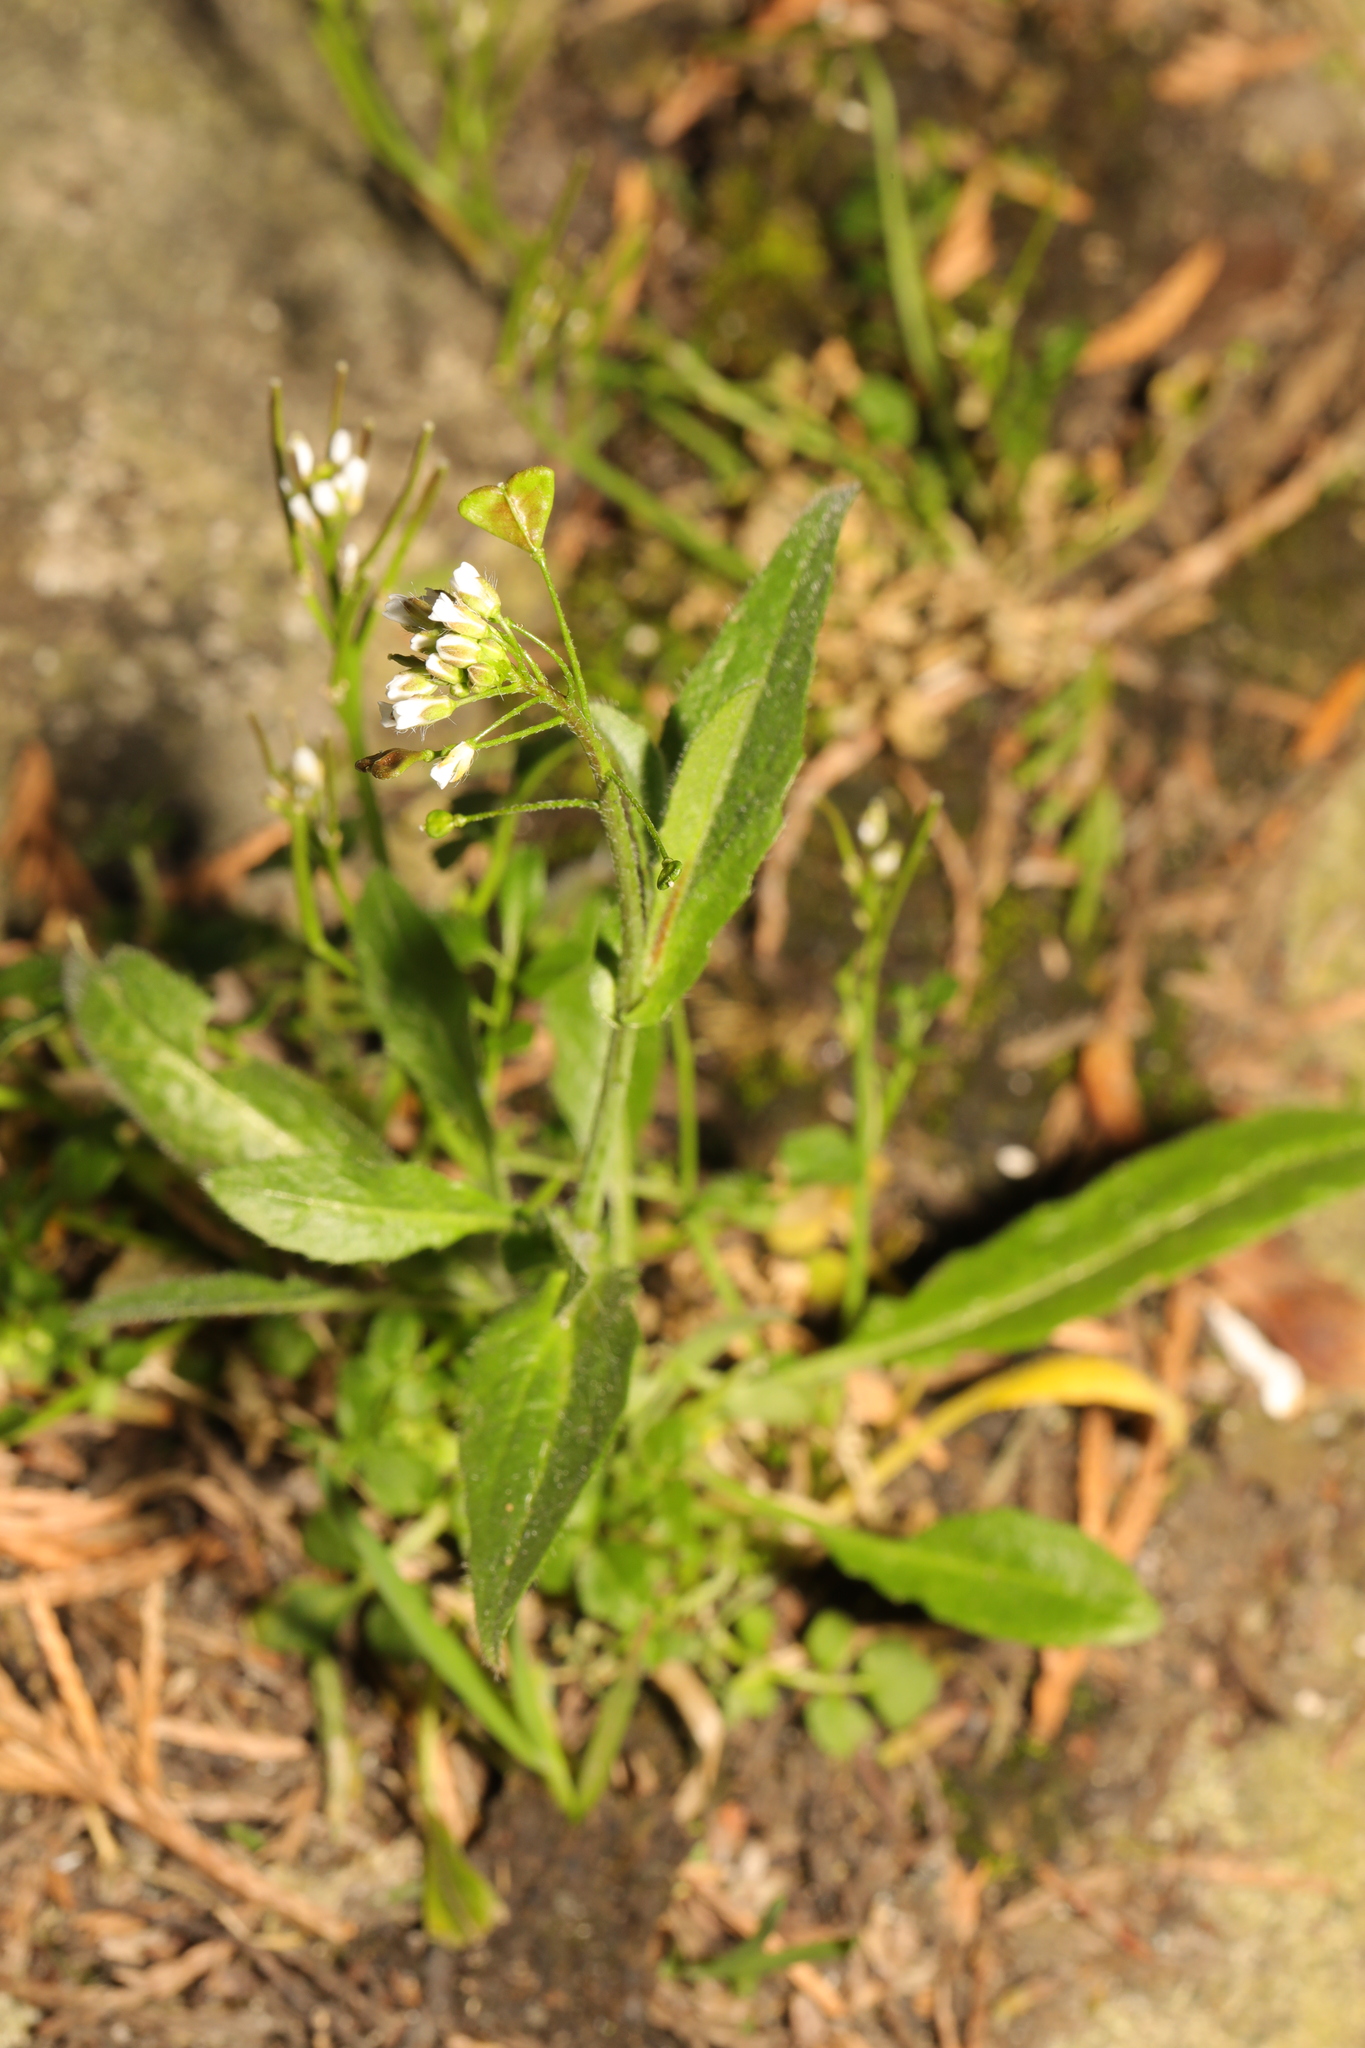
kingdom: Plantae
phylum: Tracheophyta
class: Magnoliopsida
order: Brassicales
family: Brassicaceae
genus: Capsella
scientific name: Capsella bursa-pastoris
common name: Shepherd's purse
